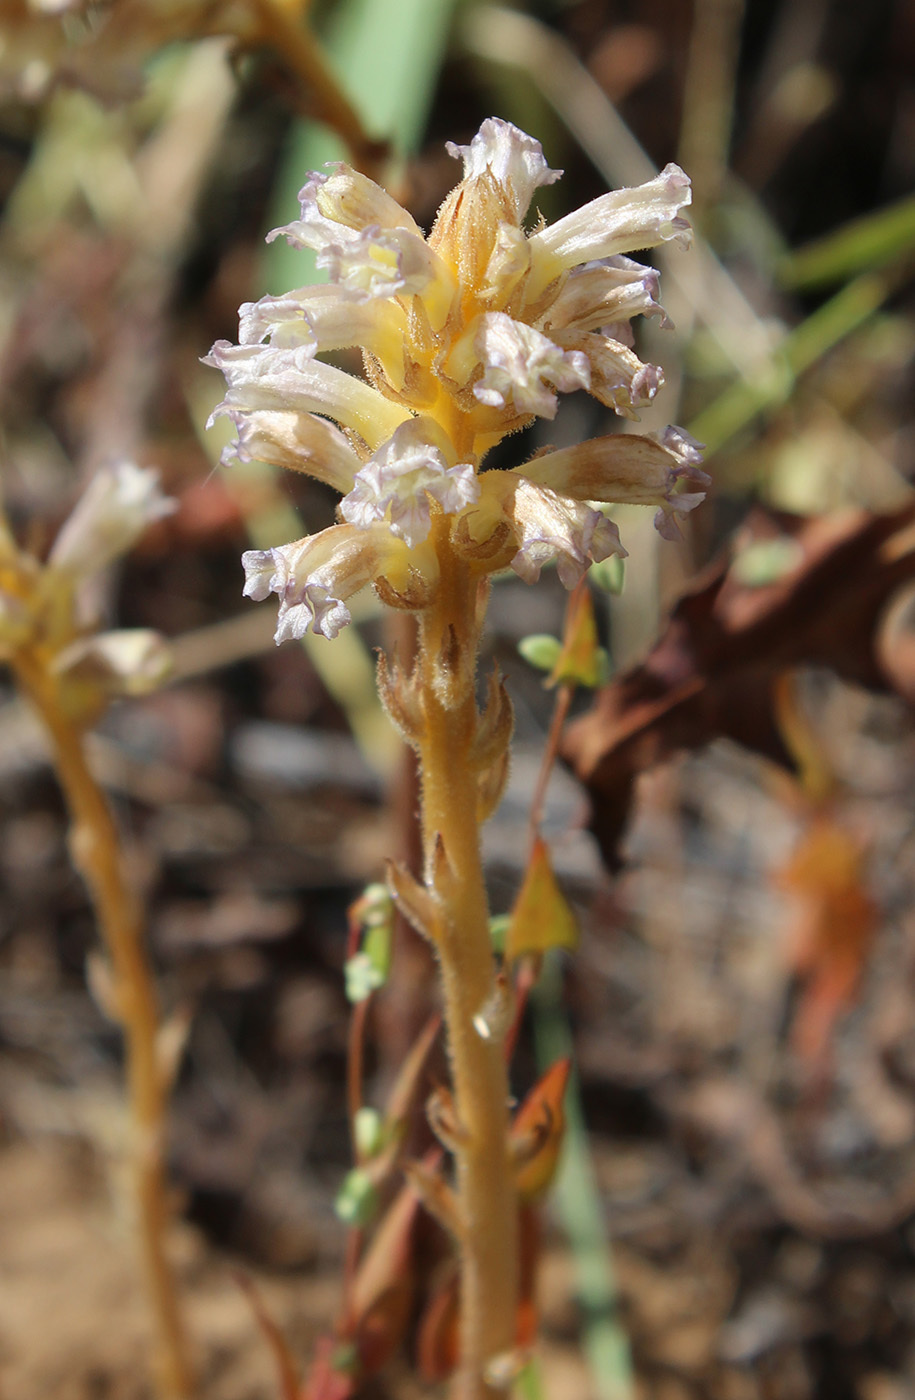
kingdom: Plantae
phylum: Tracheophyta
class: Magnoliopsida
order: Lamiales
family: Orobanchaceae
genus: Orobanche
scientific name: Orobanche grenieri
